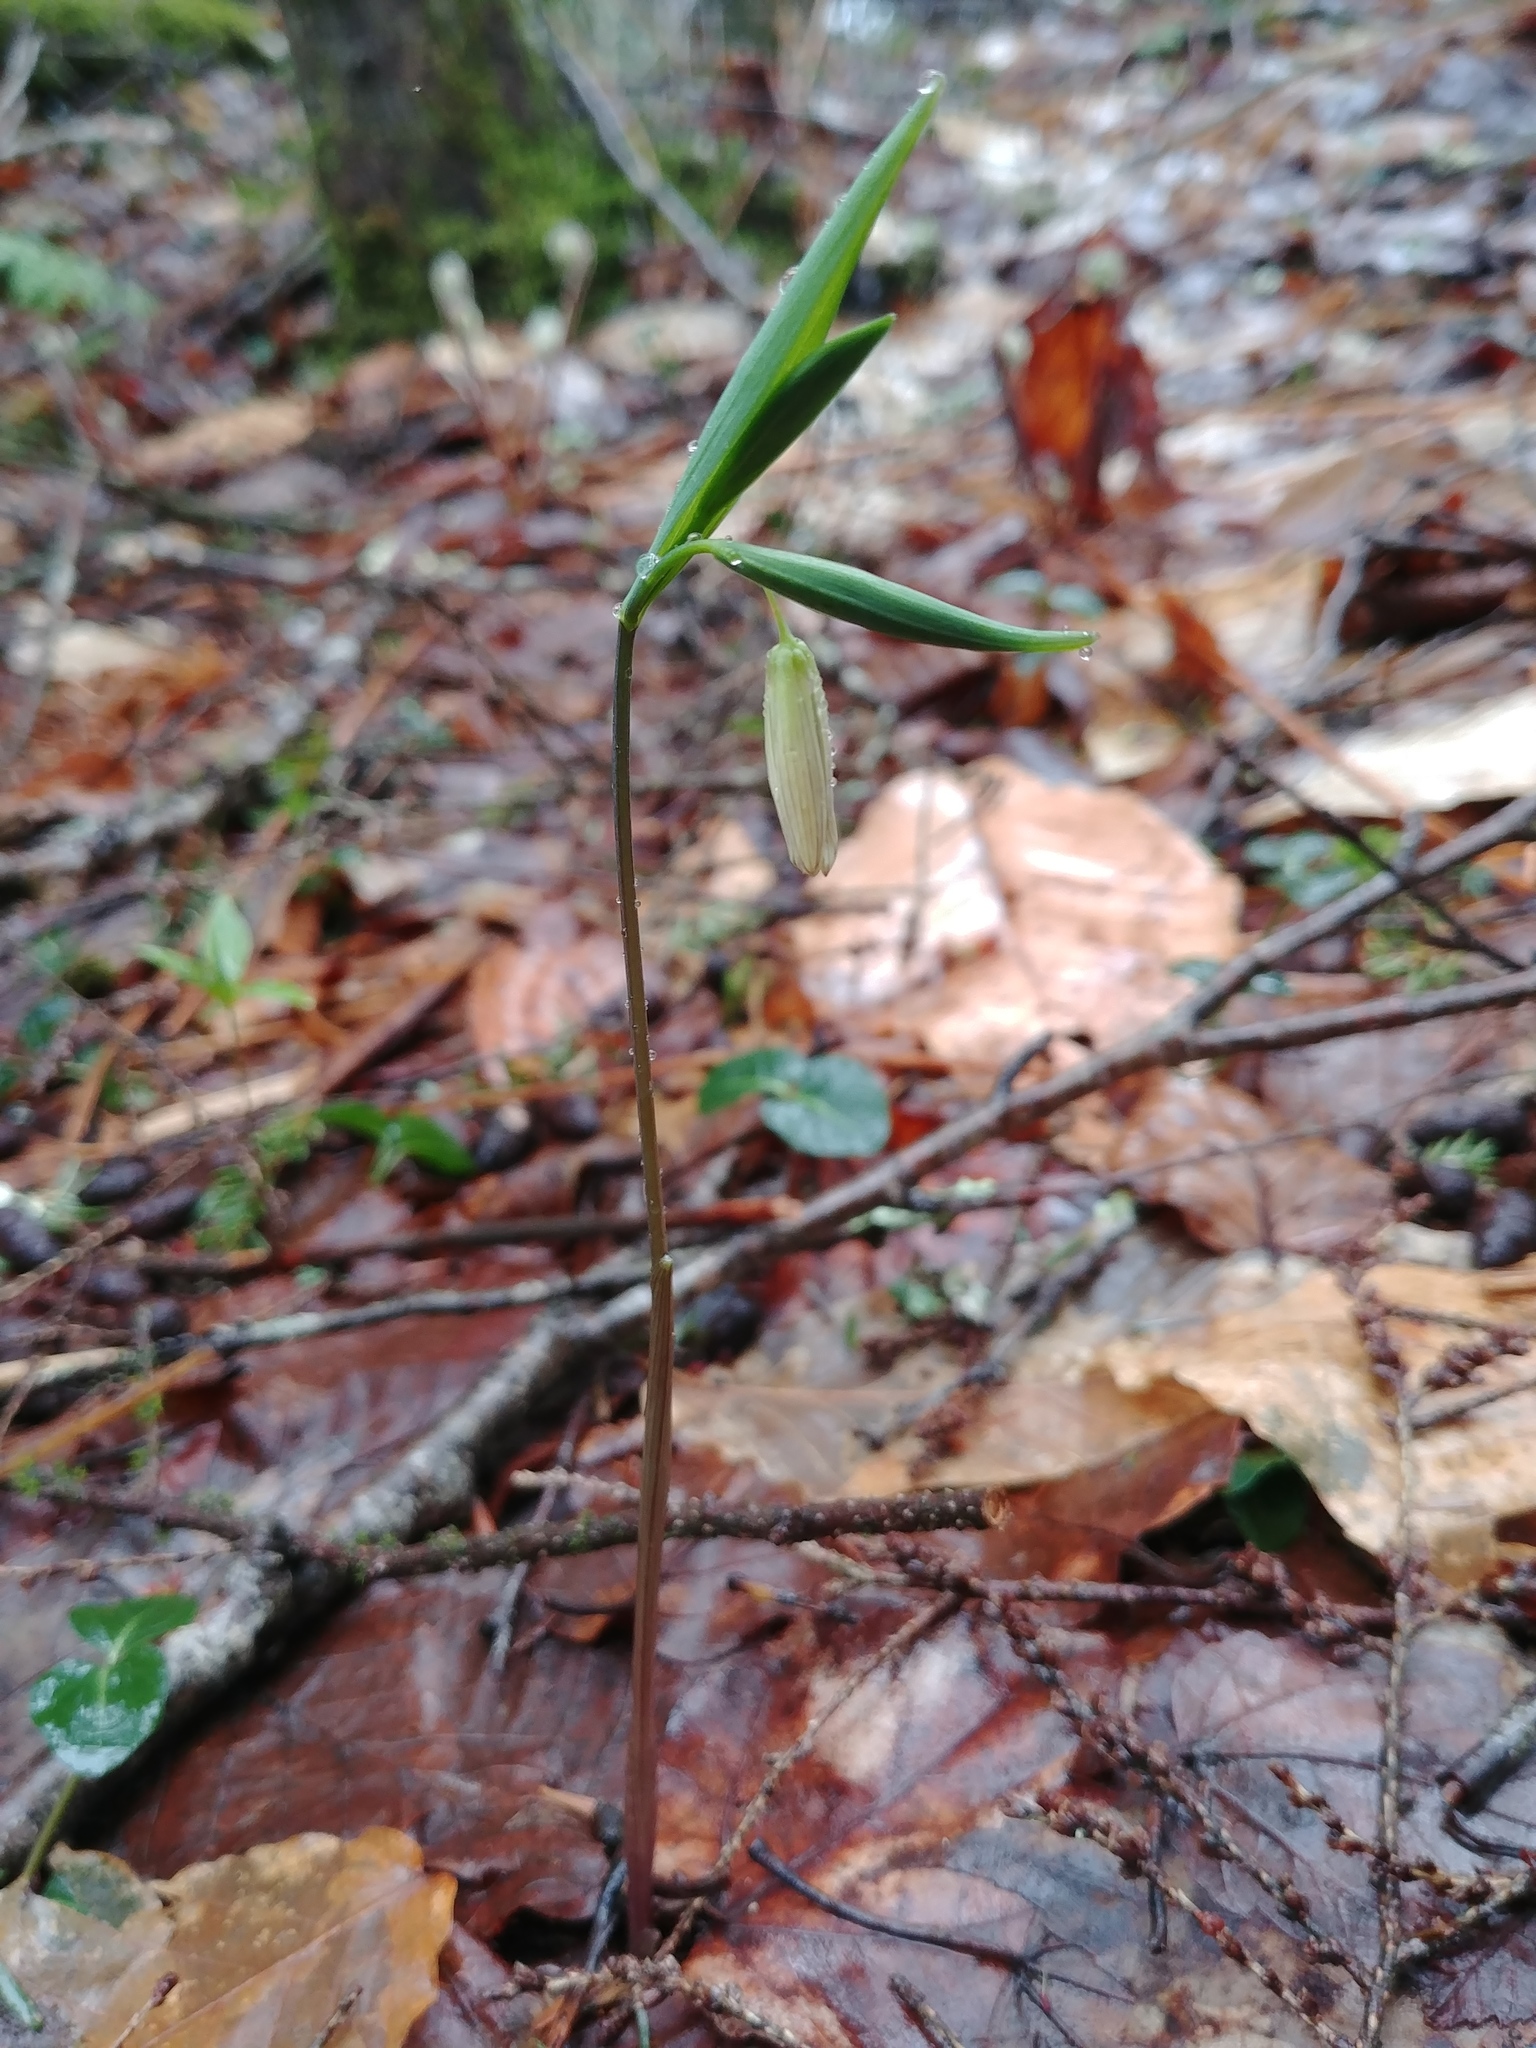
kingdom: Plantae
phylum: Tracheophyta
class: Liliopsida
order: Liliales
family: Colchicaceae
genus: Uvularia
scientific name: Uvularia sessilifolia
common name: Straw-lily
